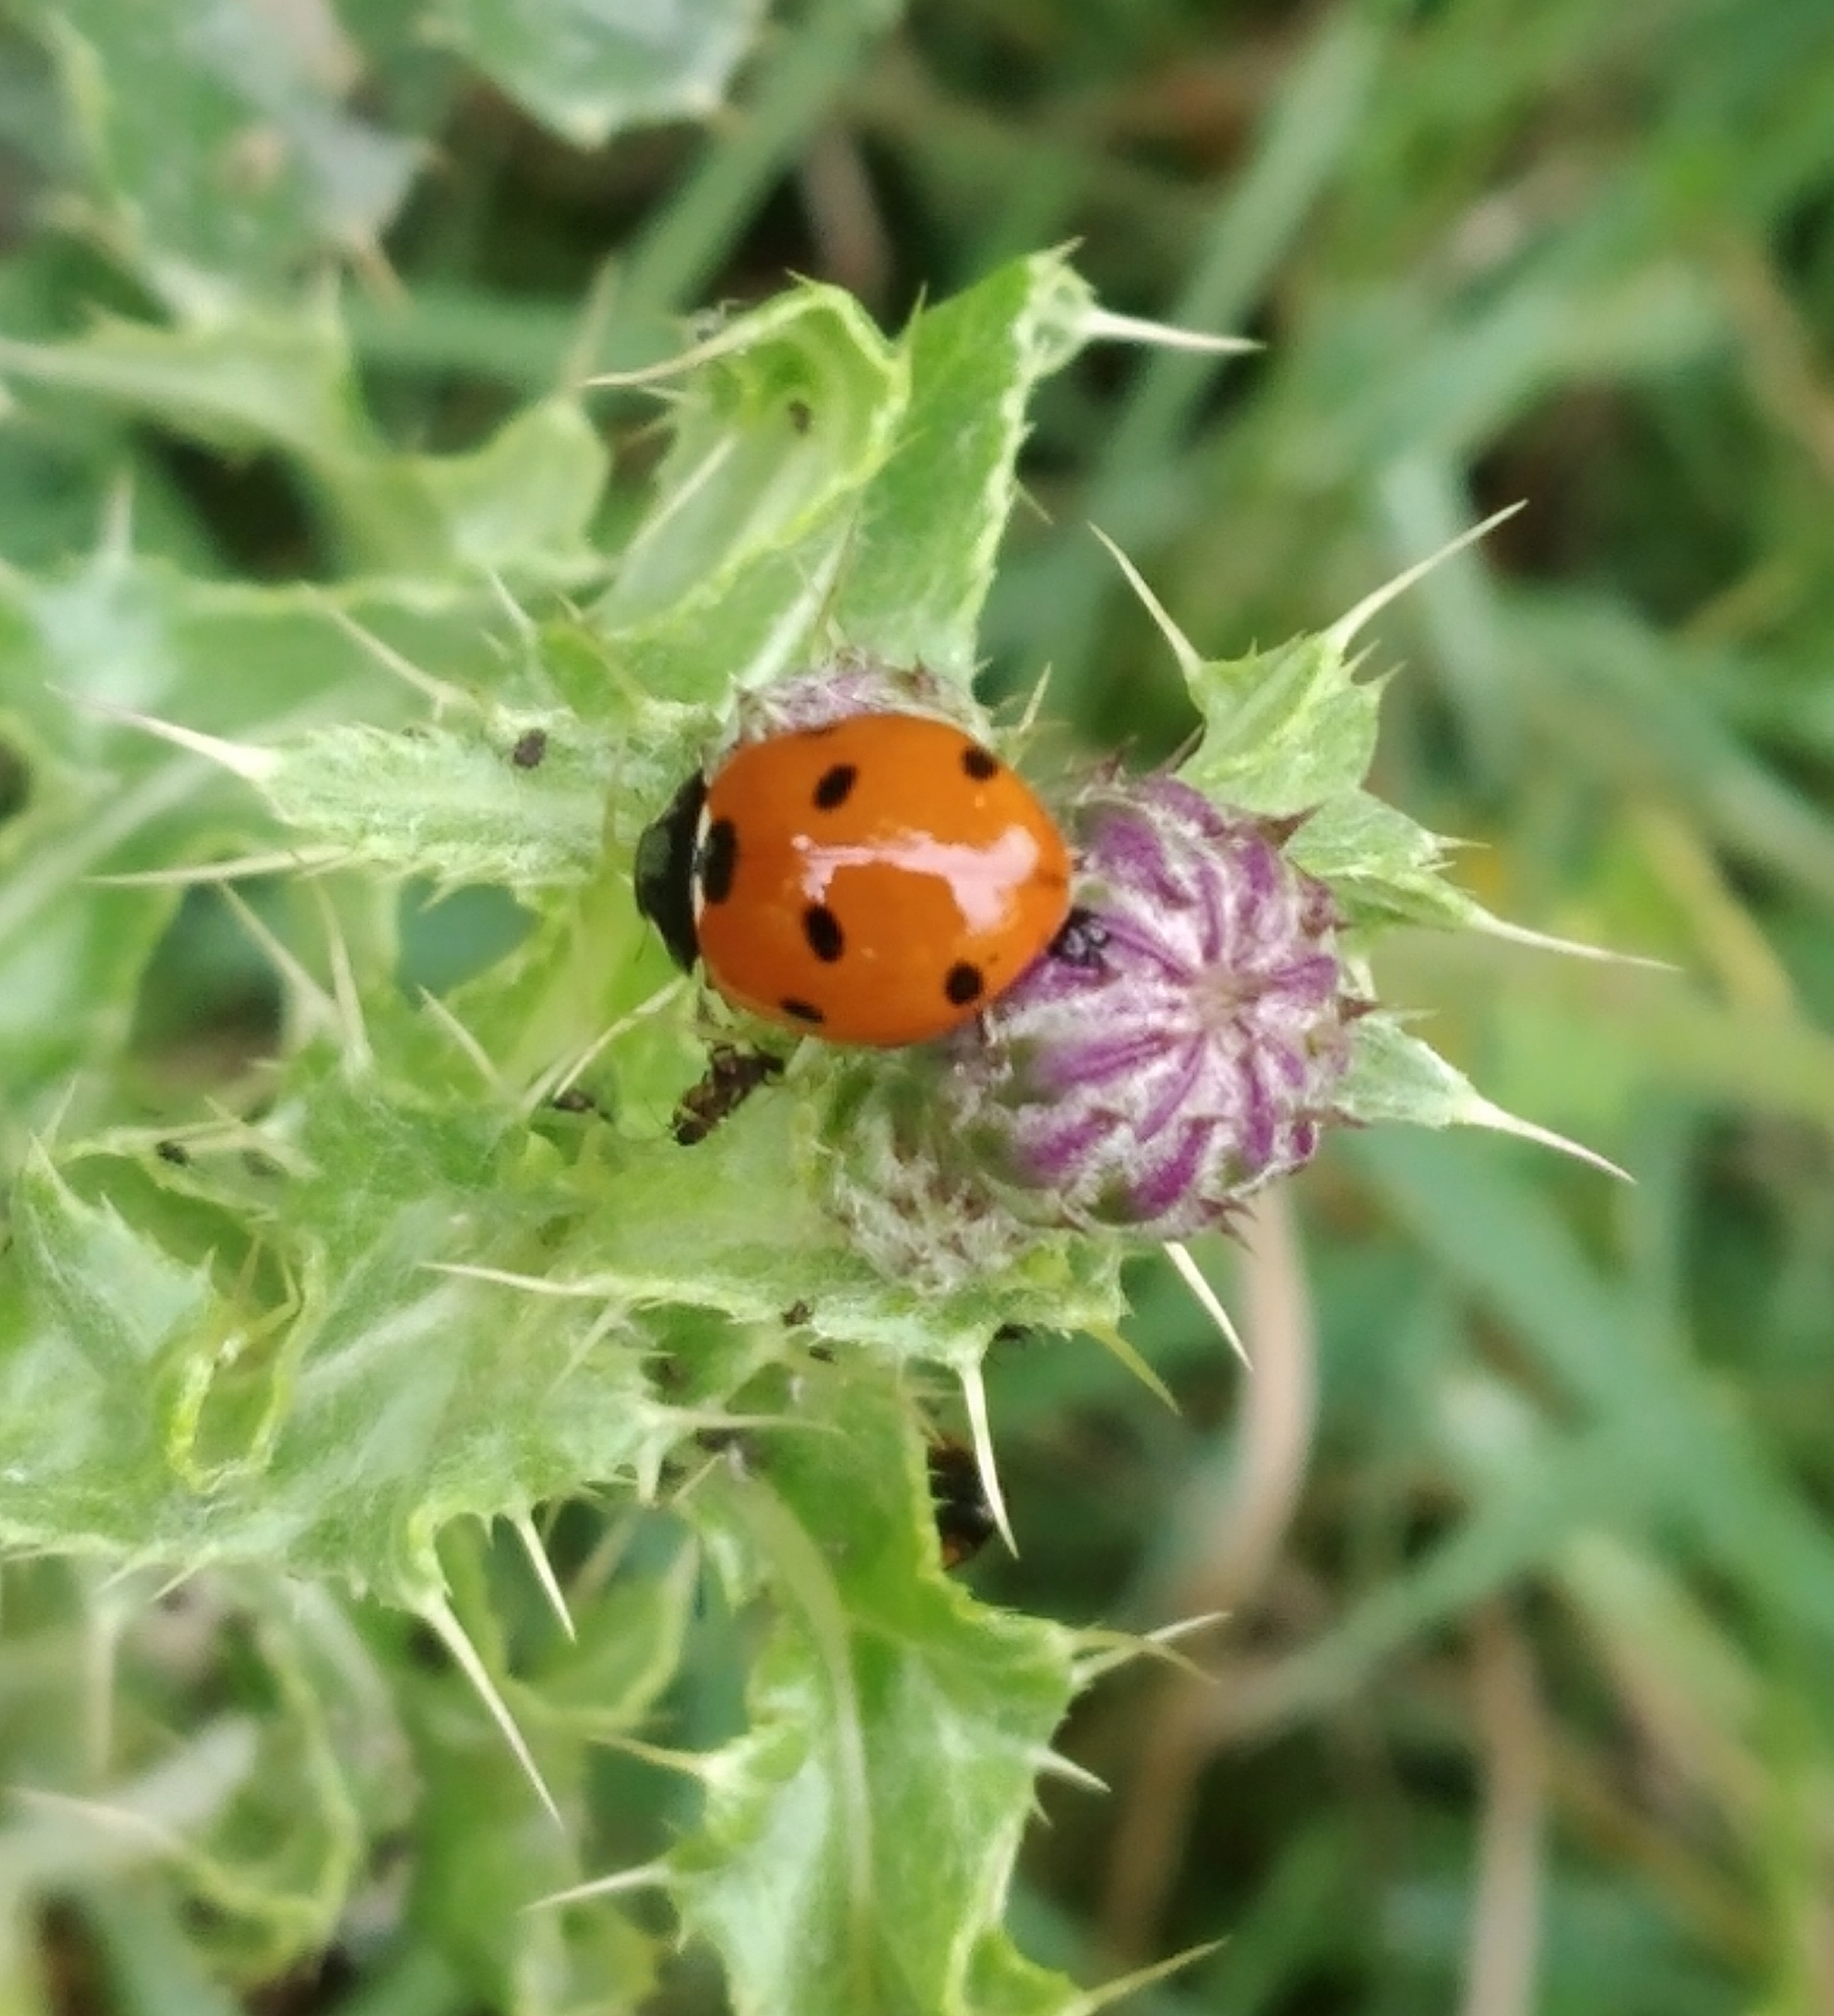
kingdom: Animalia
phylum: Arthropoda
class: Insecta
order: Coleoptera
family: Coccinellidae
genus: Coccinella
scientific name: Coccinella septempunctata
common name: Sevenspotted lady beetle
